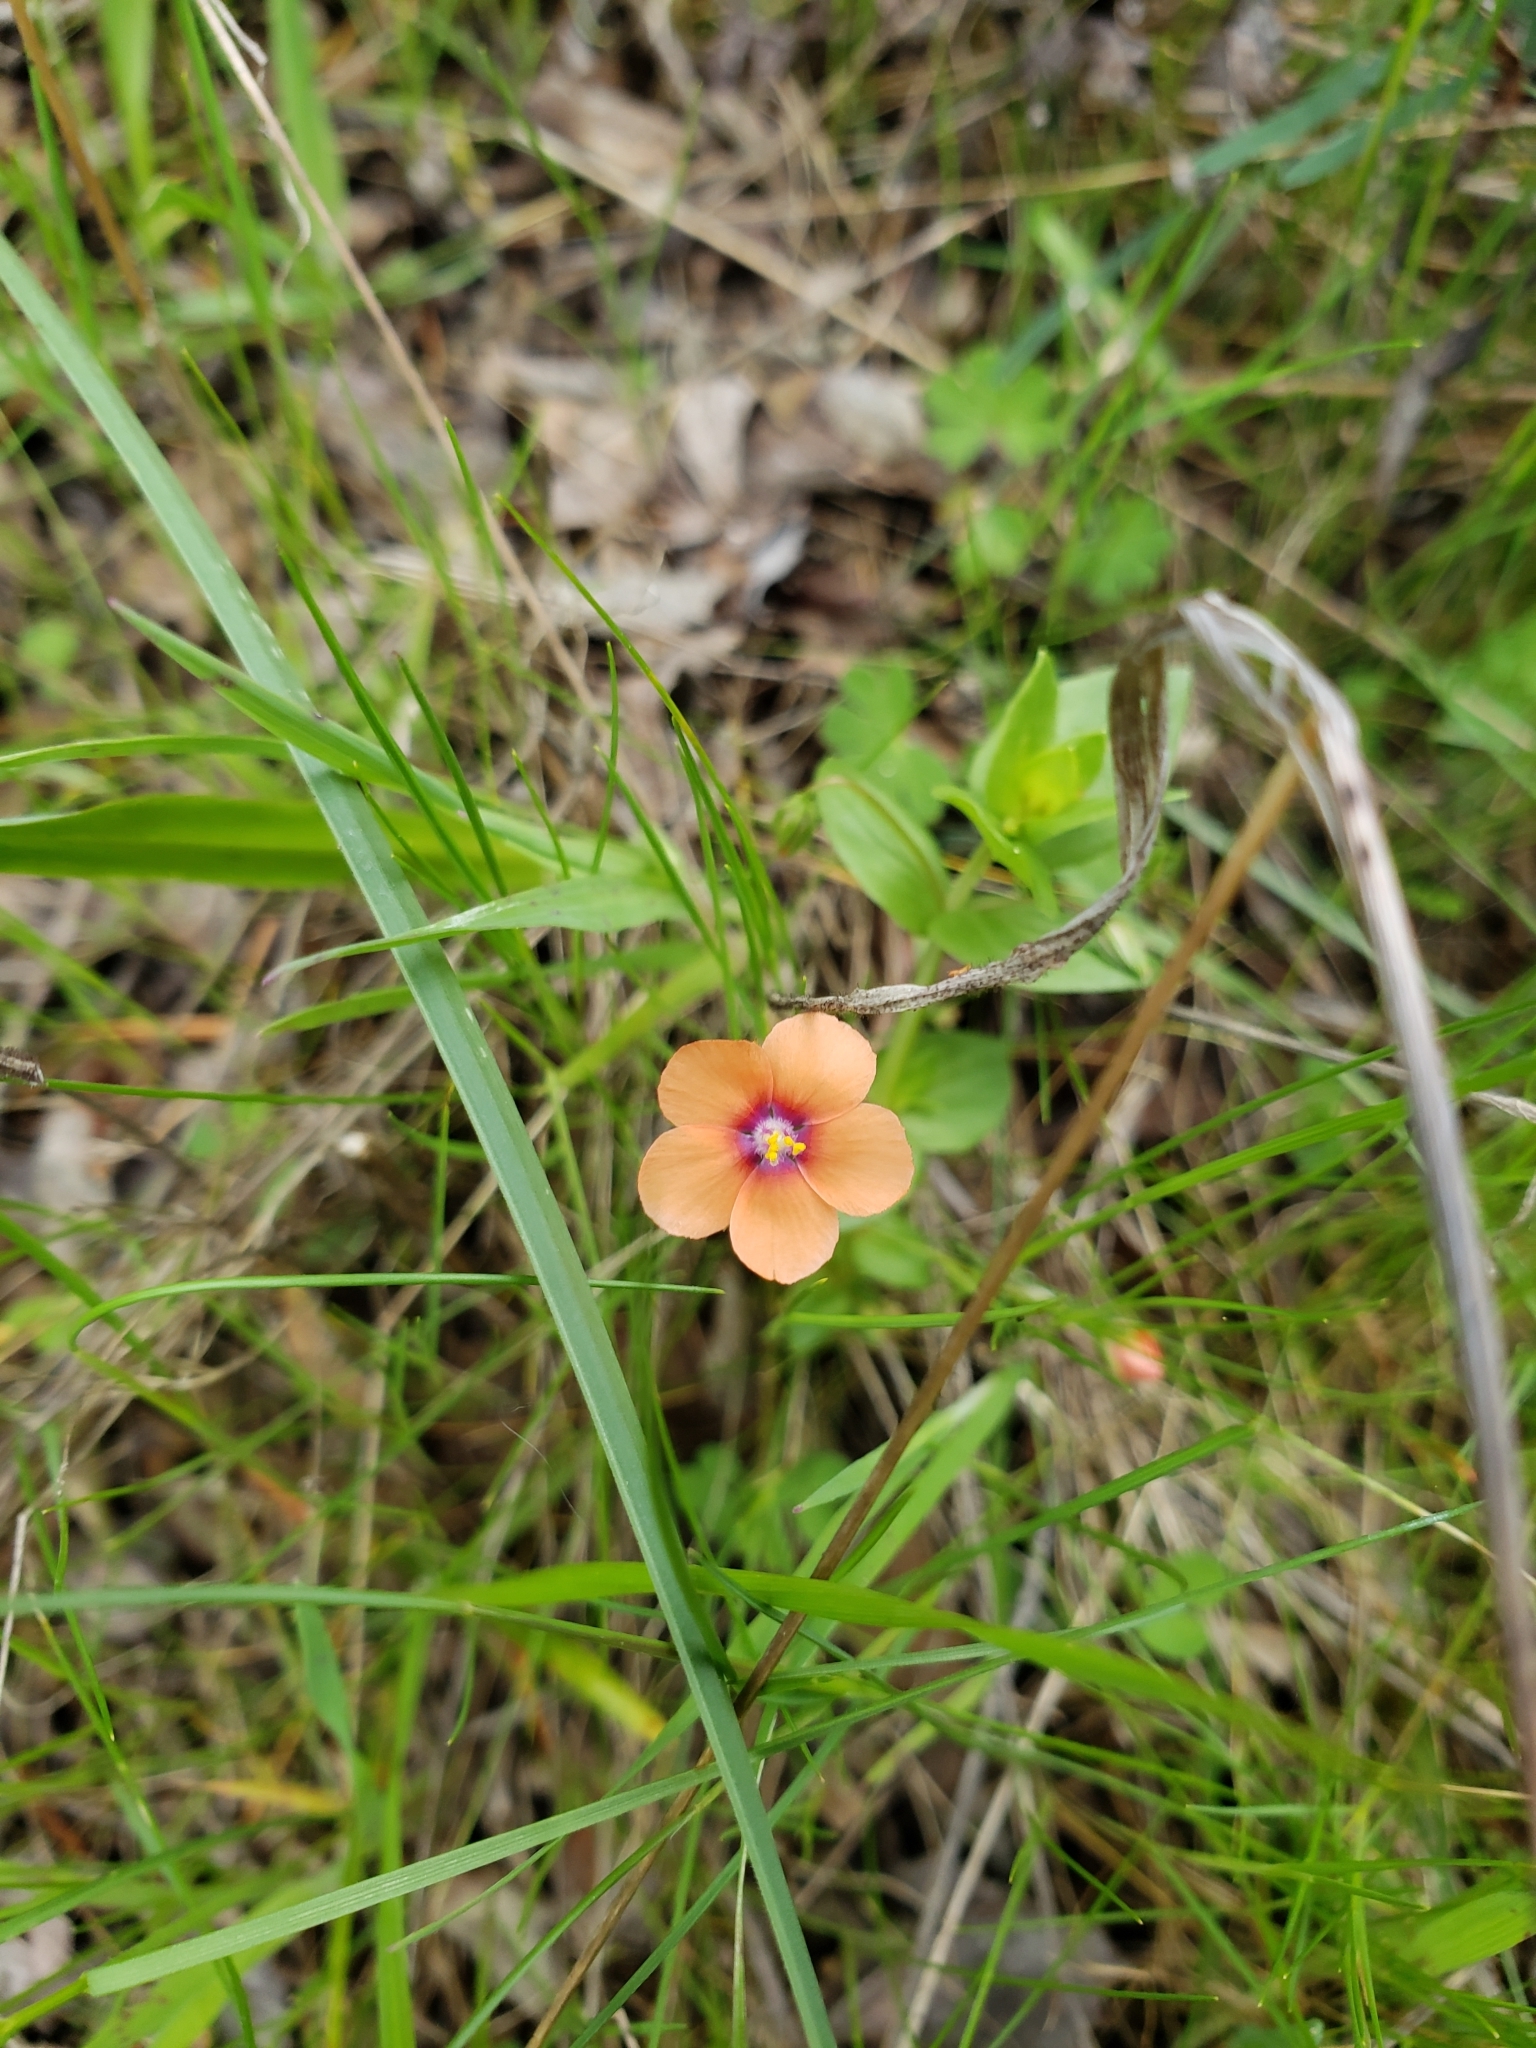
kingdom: Plantae
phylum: Tracheophyta
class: Magnoliopsida
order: Ericales
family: Primulaceae
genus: Lysimachia
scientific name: Lysimachia arvensis
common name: Scarlet pimpernel
